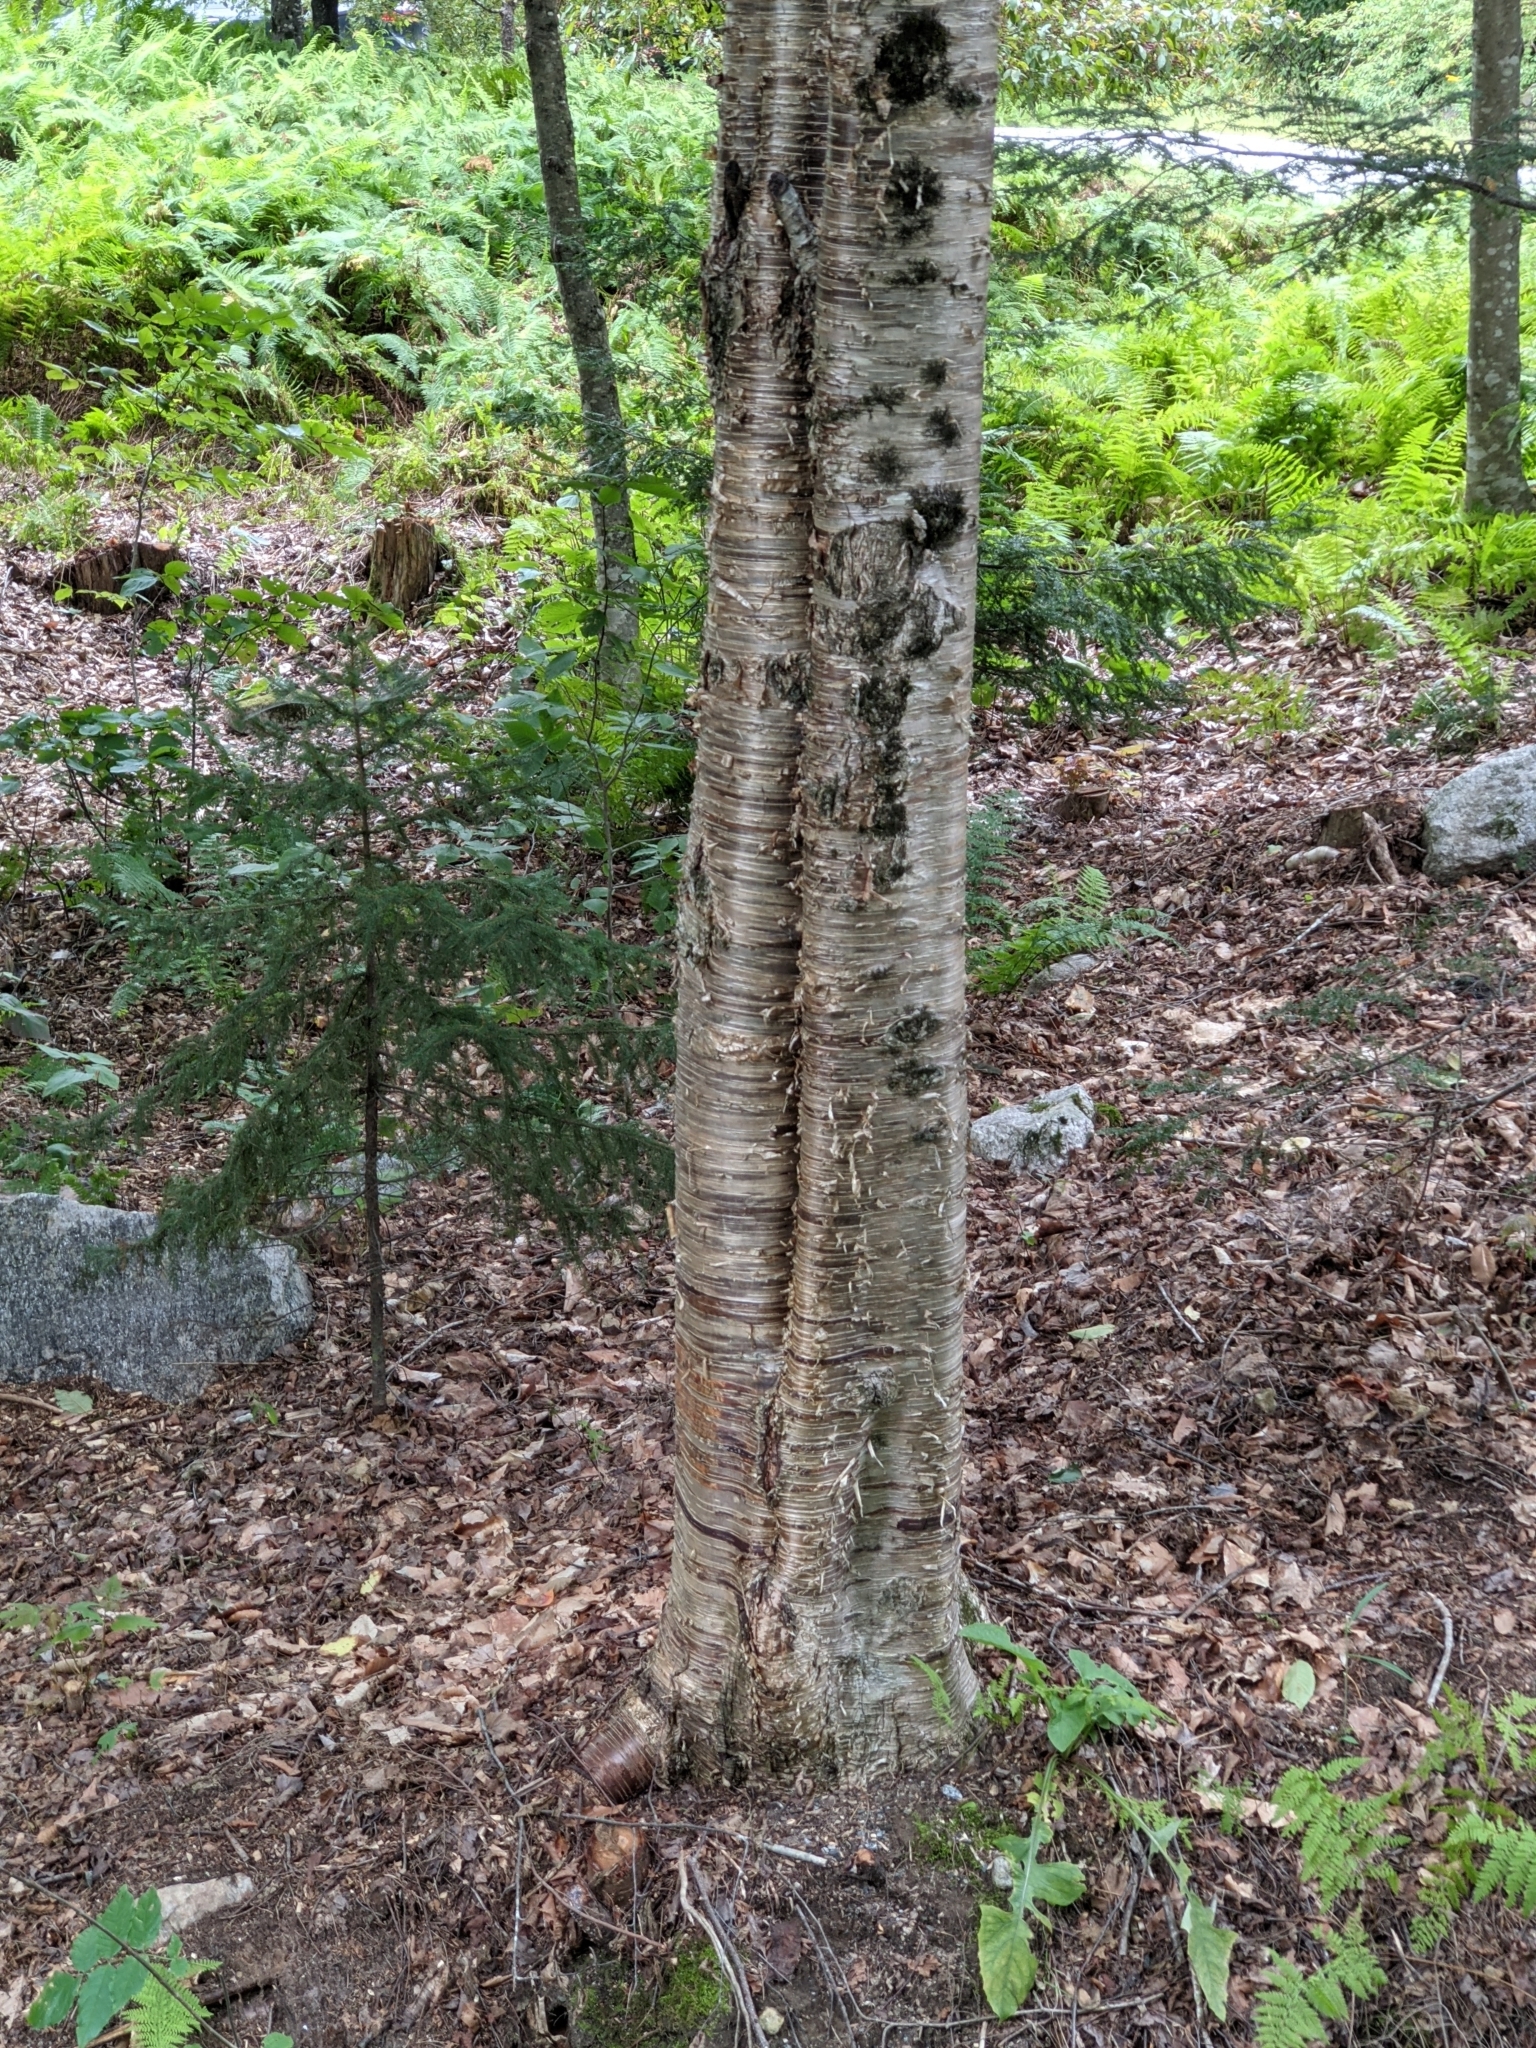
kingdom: Plantae
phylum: Tracheophyta
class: Magnoliopsida
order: Fagales
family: Betulaceae
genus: Betula
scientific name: Betula alleghaniensis
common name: Yellow birch
